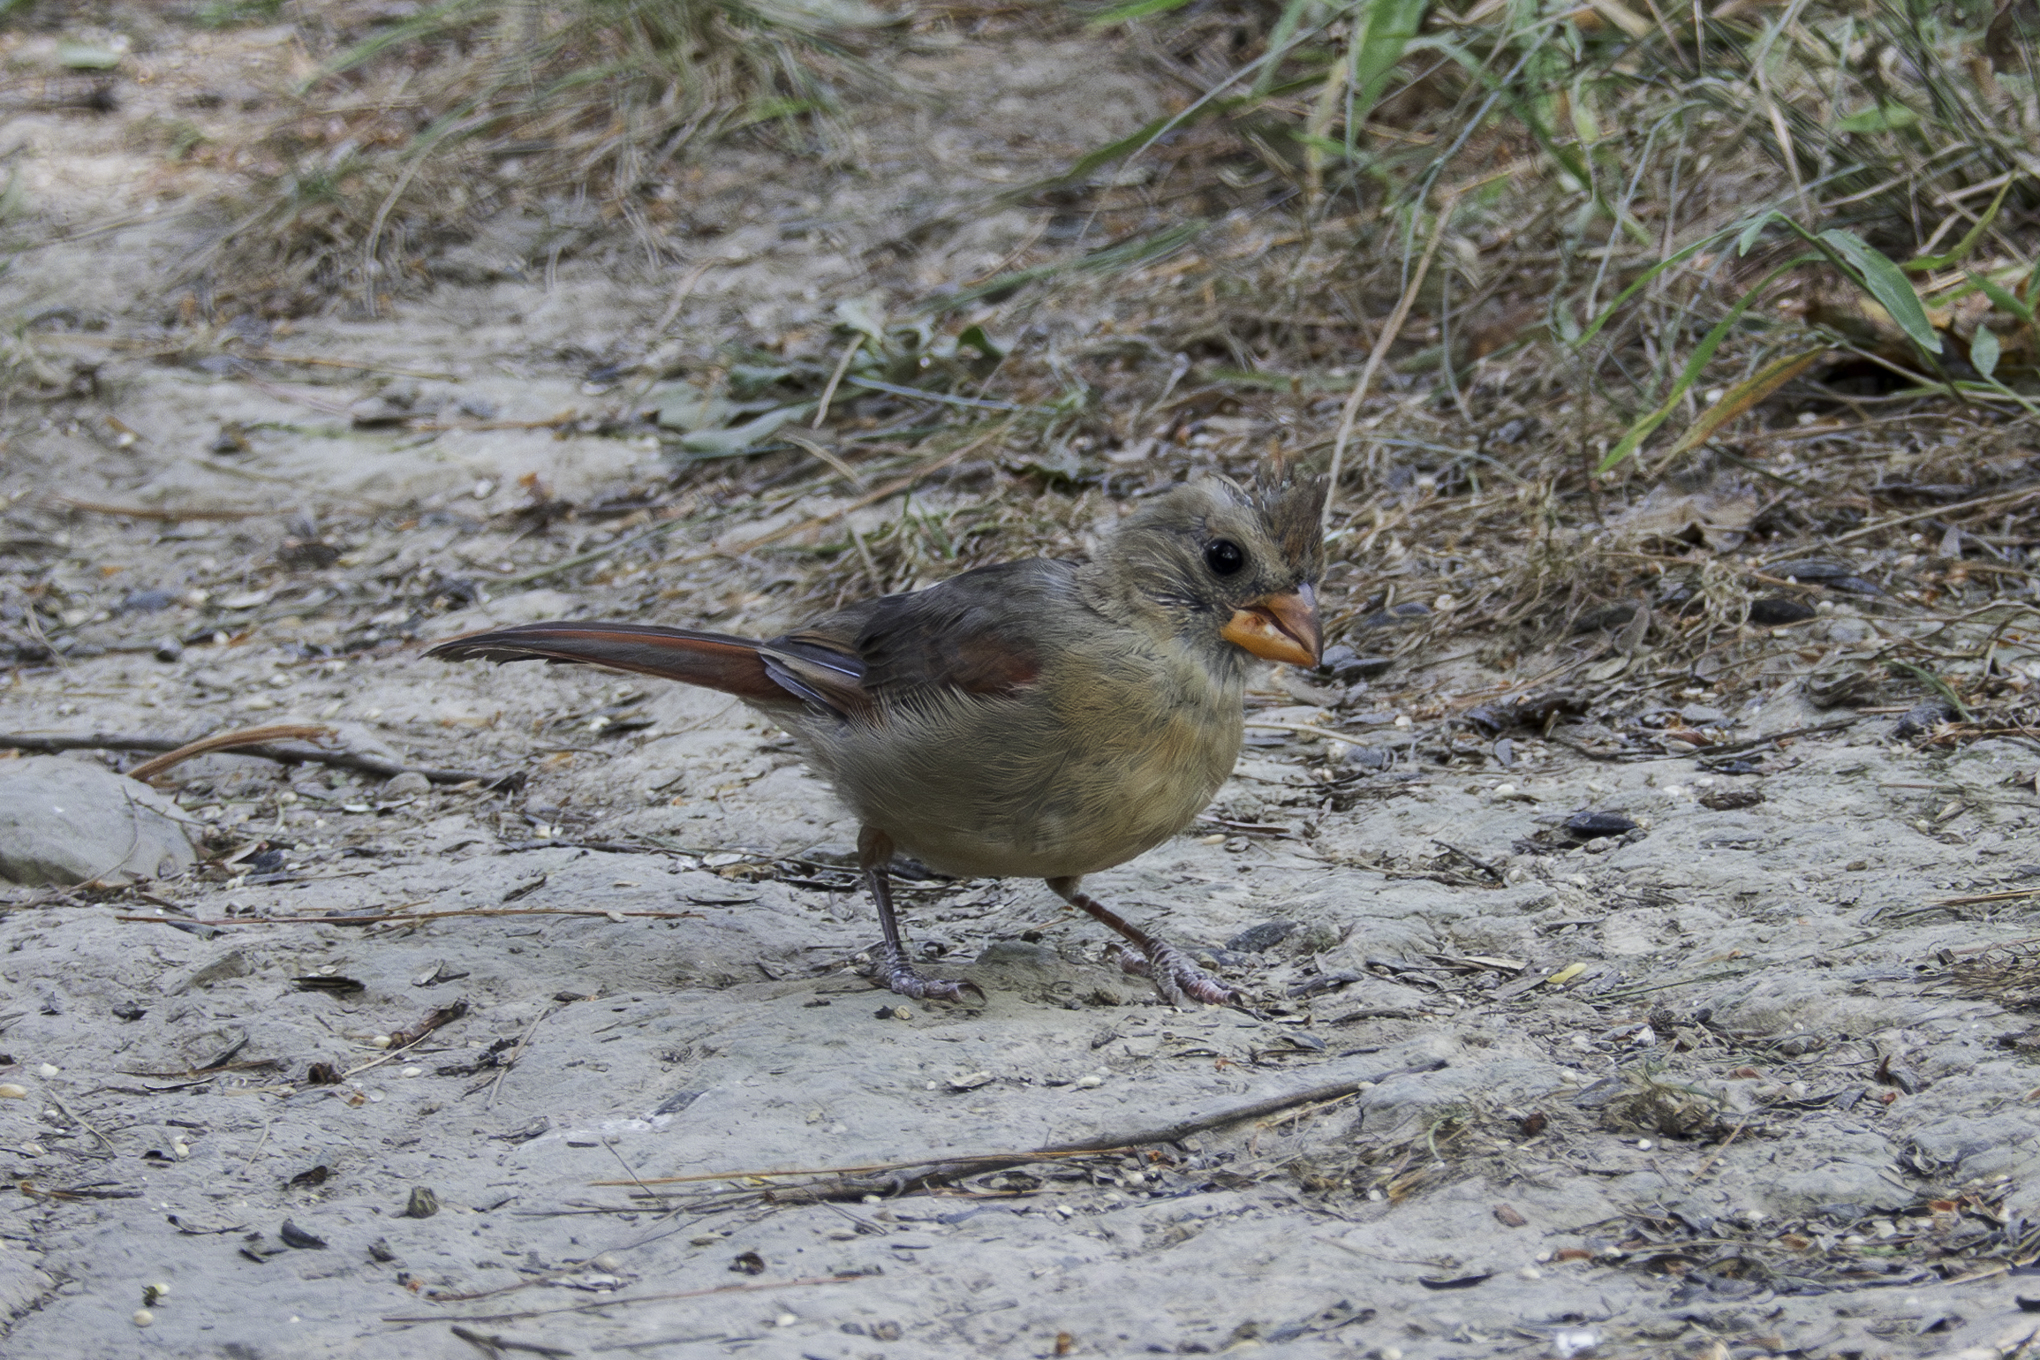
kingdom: Animalia
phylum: Chordata
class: Aves
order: Passeriformes
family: Cardinalidae
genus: Cardinalis
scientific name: Cardinalis cardinalis
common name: Northern cardinal
